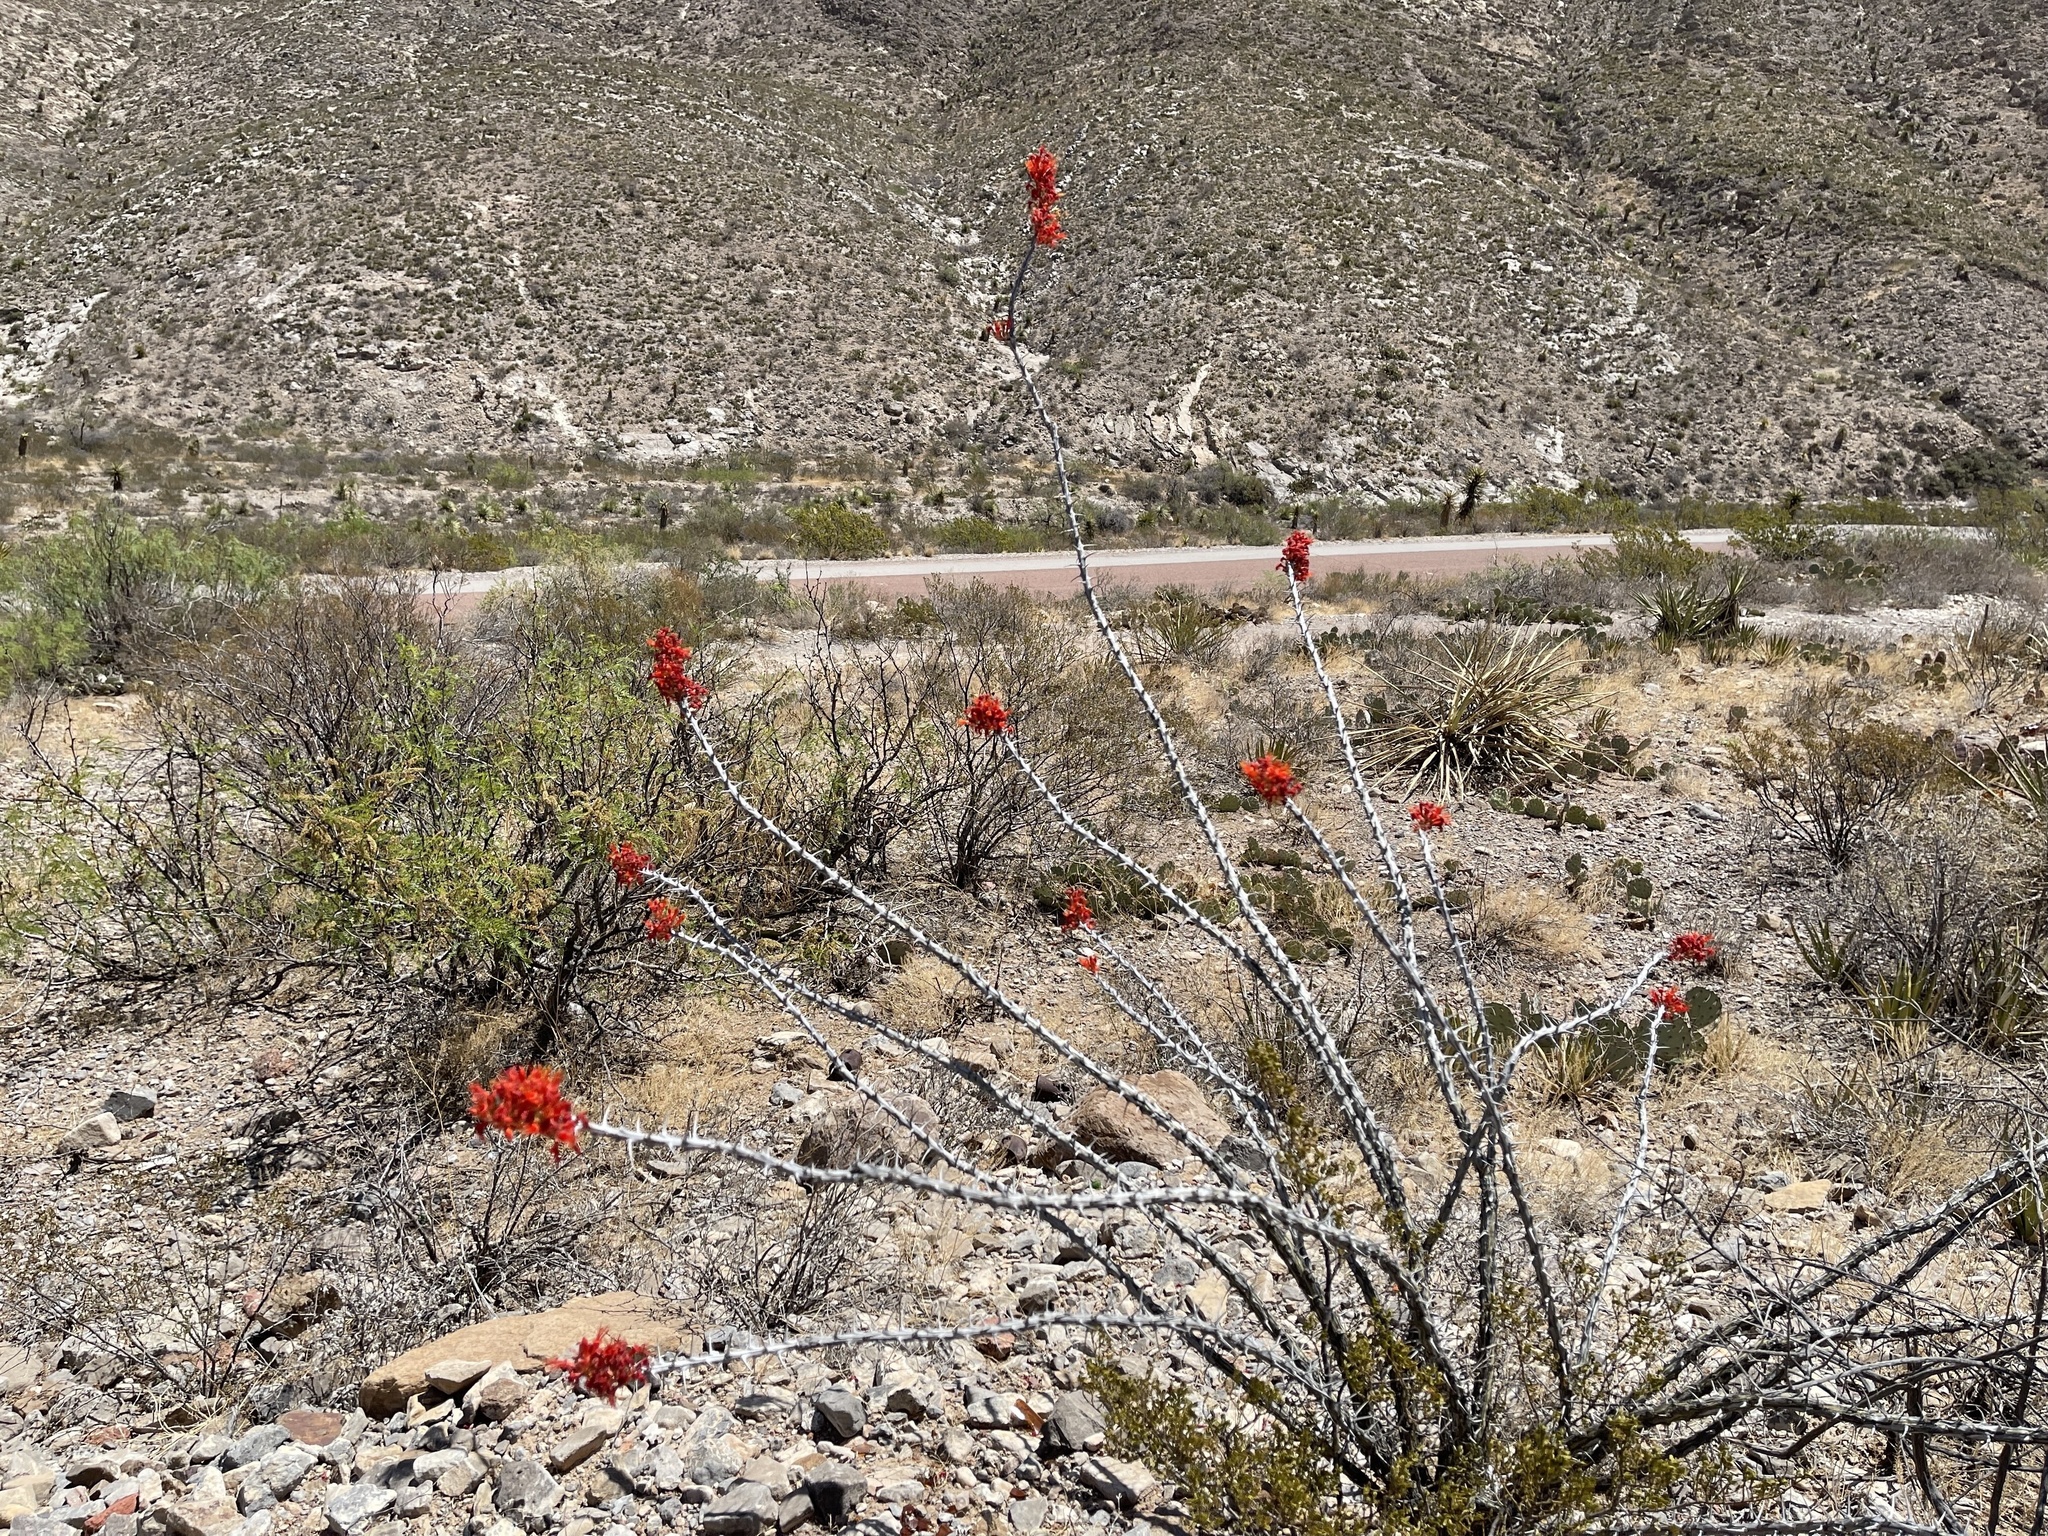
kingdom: Plantae
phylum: Tracheophyta
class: Magnoliopsida
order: Ericales
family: Fouquieriaceae
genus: Fouquieria
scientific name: Fouquieria splendens
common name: Vine-cactus
